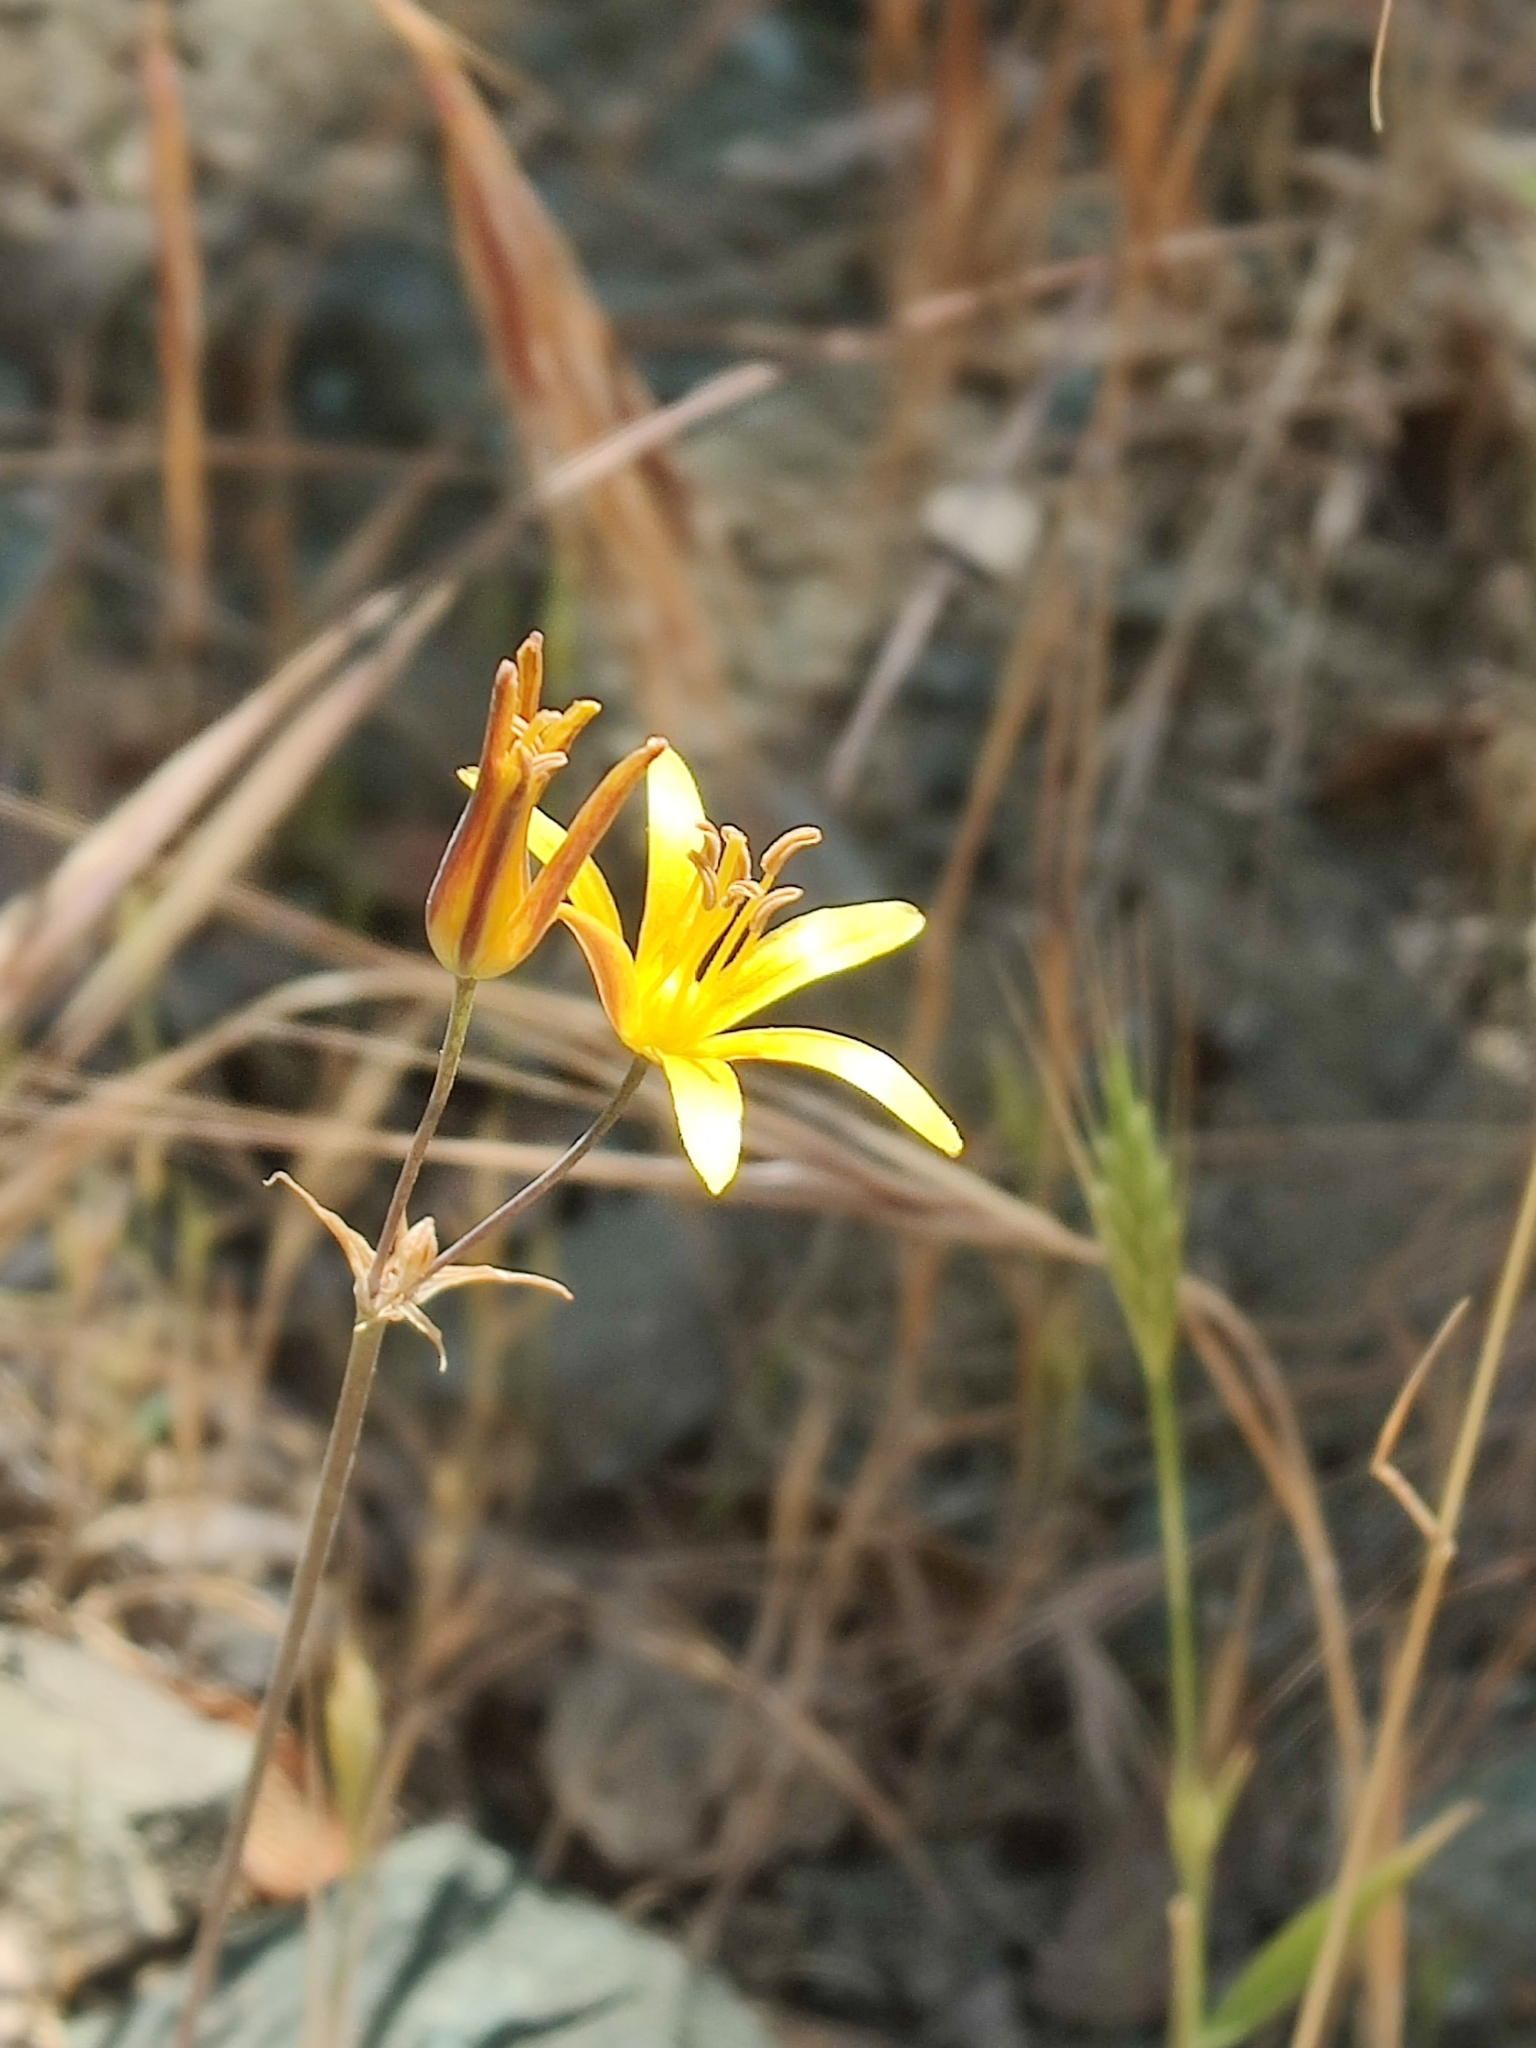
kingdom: Plantae
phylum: Tracheophyta
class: Liliopsida
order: Asparagales
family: Asparagaceae
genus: Bloomeria
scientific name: Bloomeria crocea
